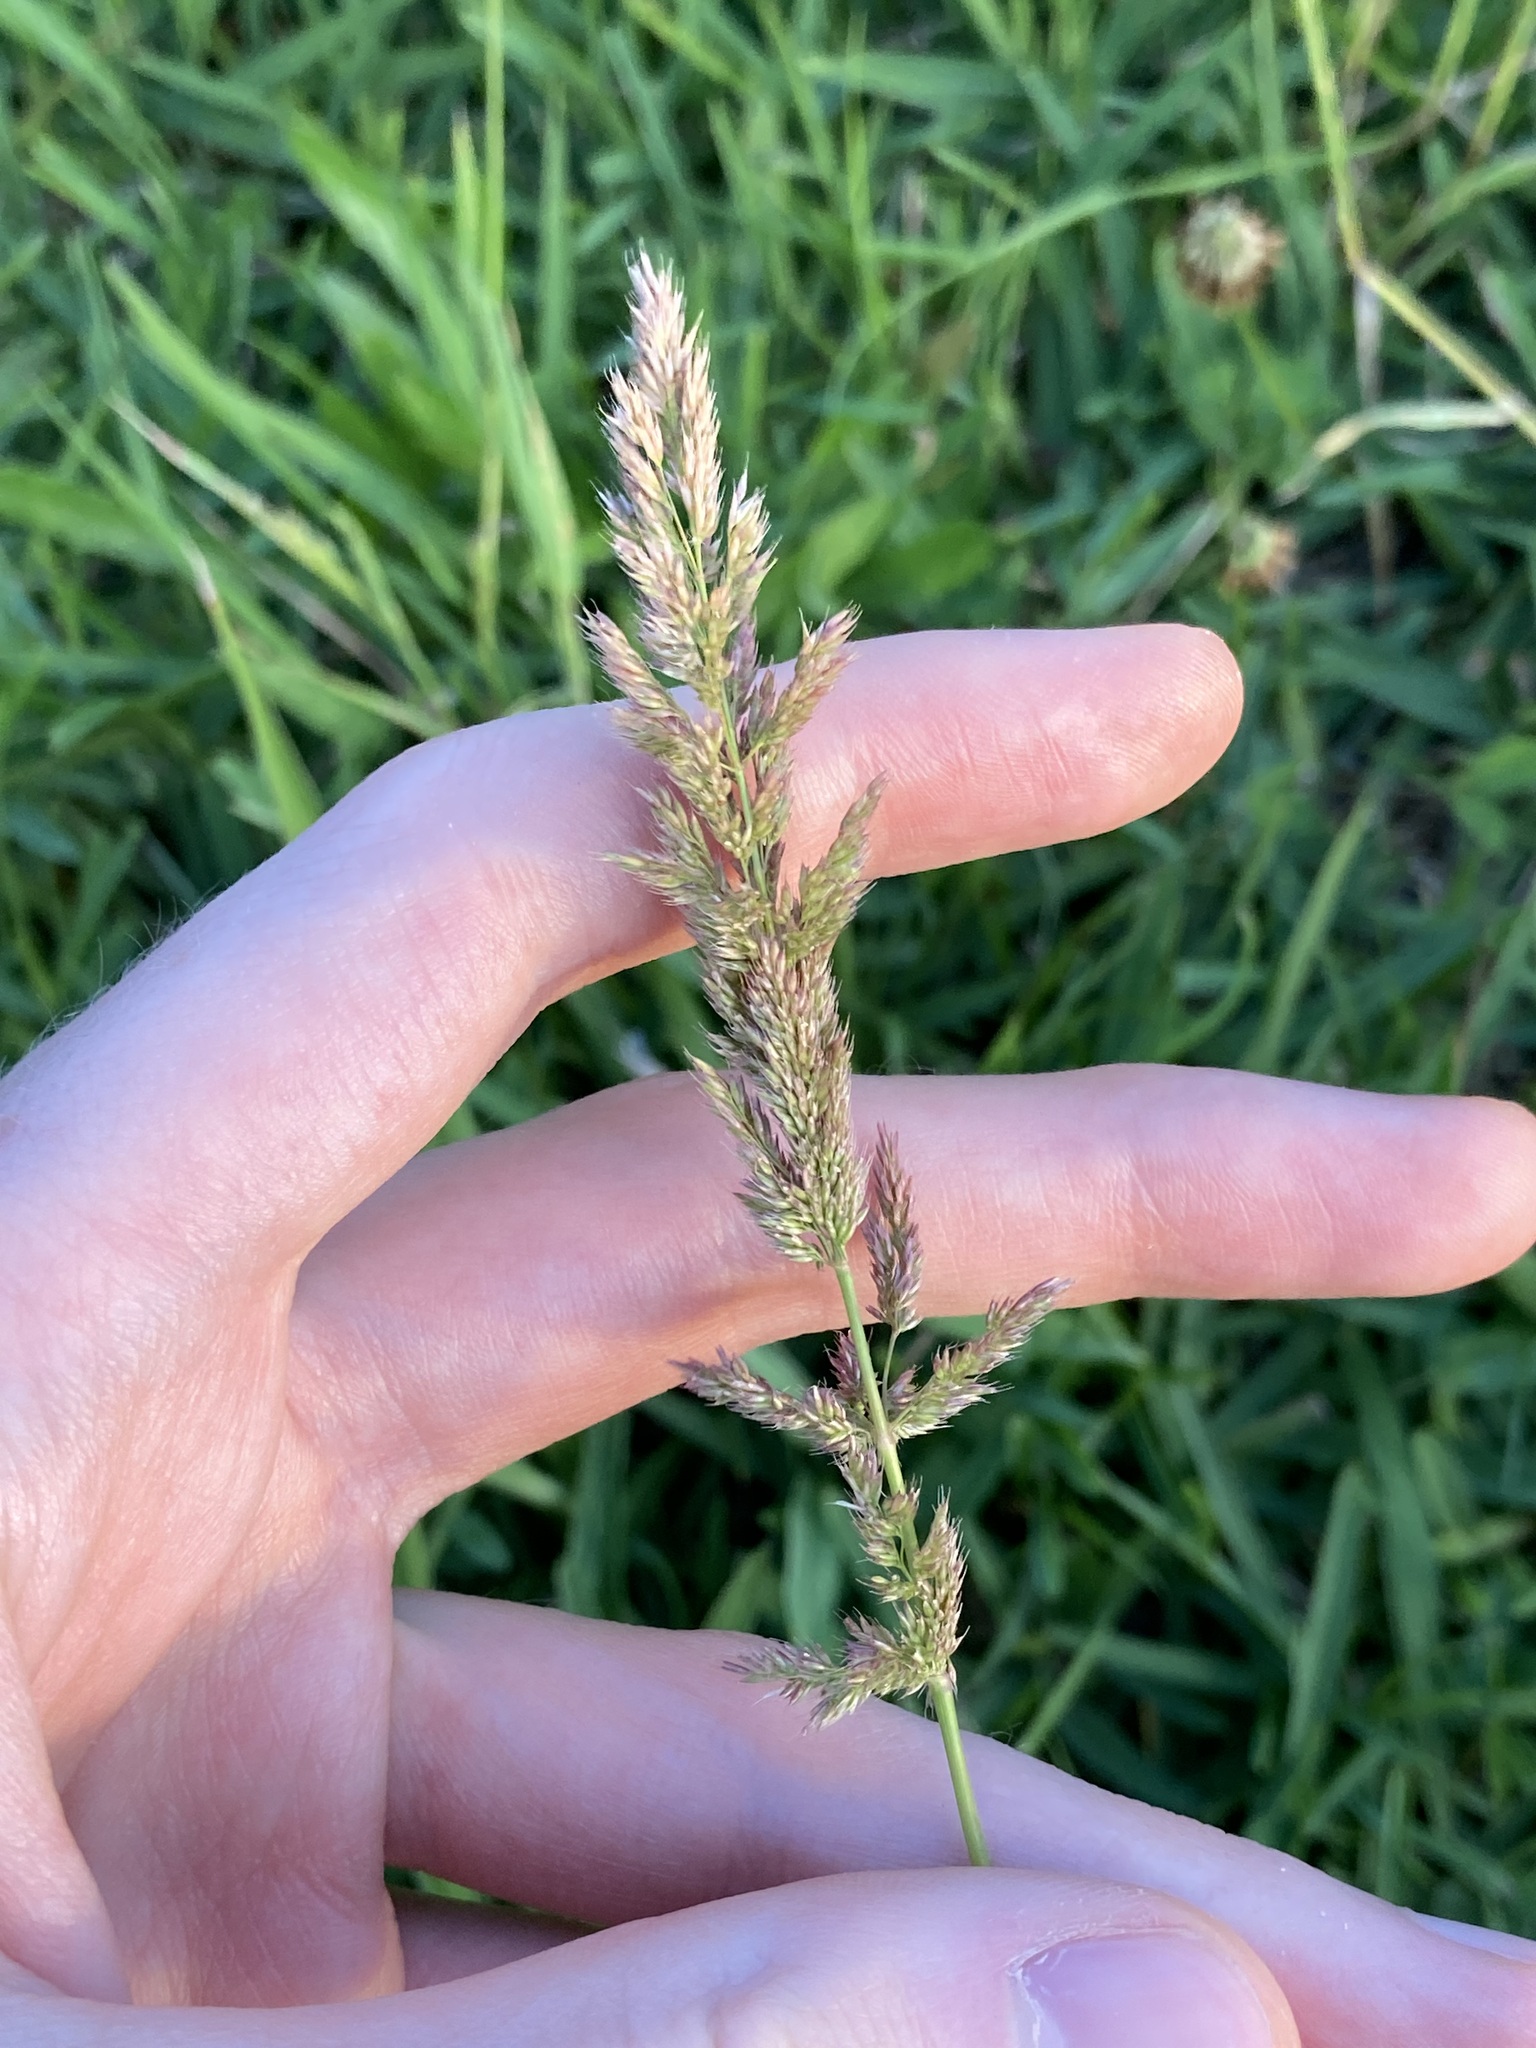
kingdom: Plantae
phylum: Tracheophyta
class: Liliopsida
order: Poales
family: Poaceae
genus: Holcus
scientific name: Holcus lanatus
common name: Yorkshire-fog
